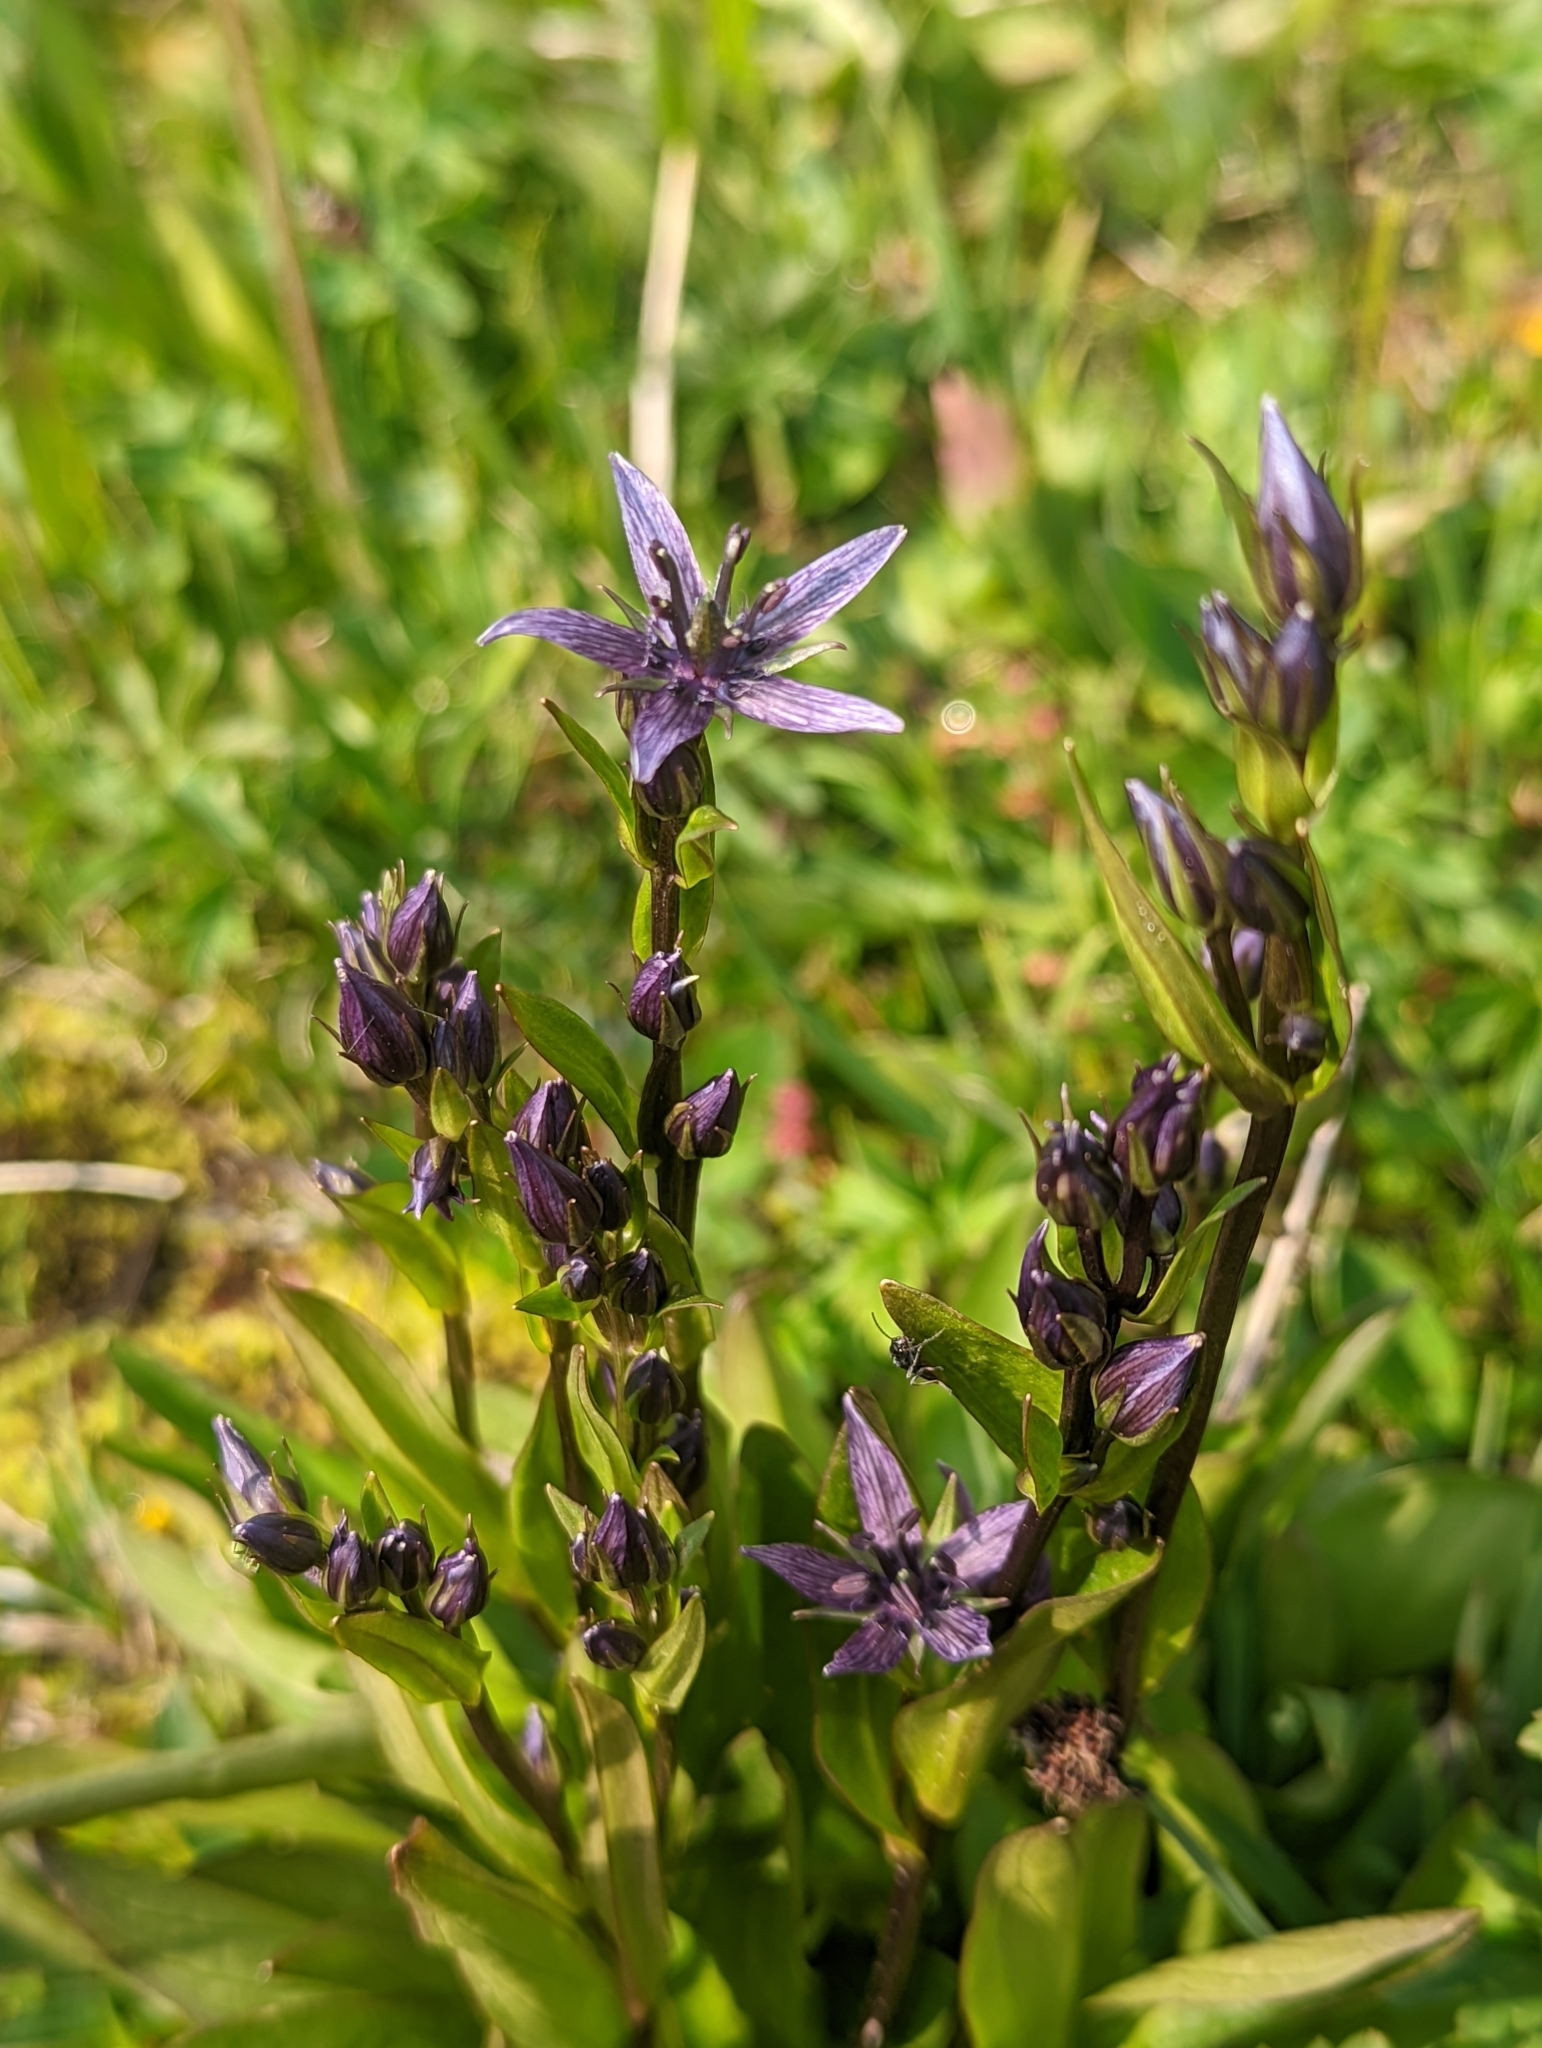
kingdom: Plantae
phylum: Tracheophyta
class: Magnoliopsida
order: Gentianales
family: Gentianaceae
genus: Swertia
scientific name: Swertia perennis
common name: Alpine bog swertia
